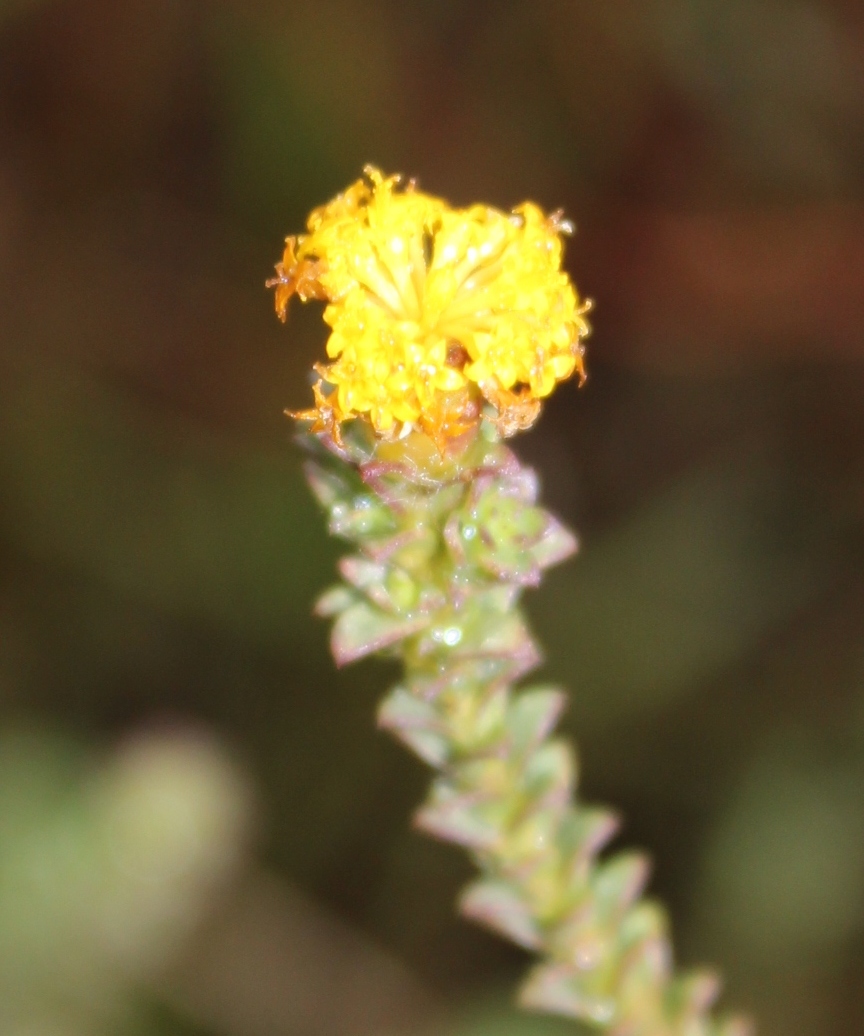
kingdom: Plantae
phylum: Tracheophyta
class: Magnoliopsida
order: Asterales
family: Asteraceae
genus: Athanasia
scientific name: Athanasia capitata
